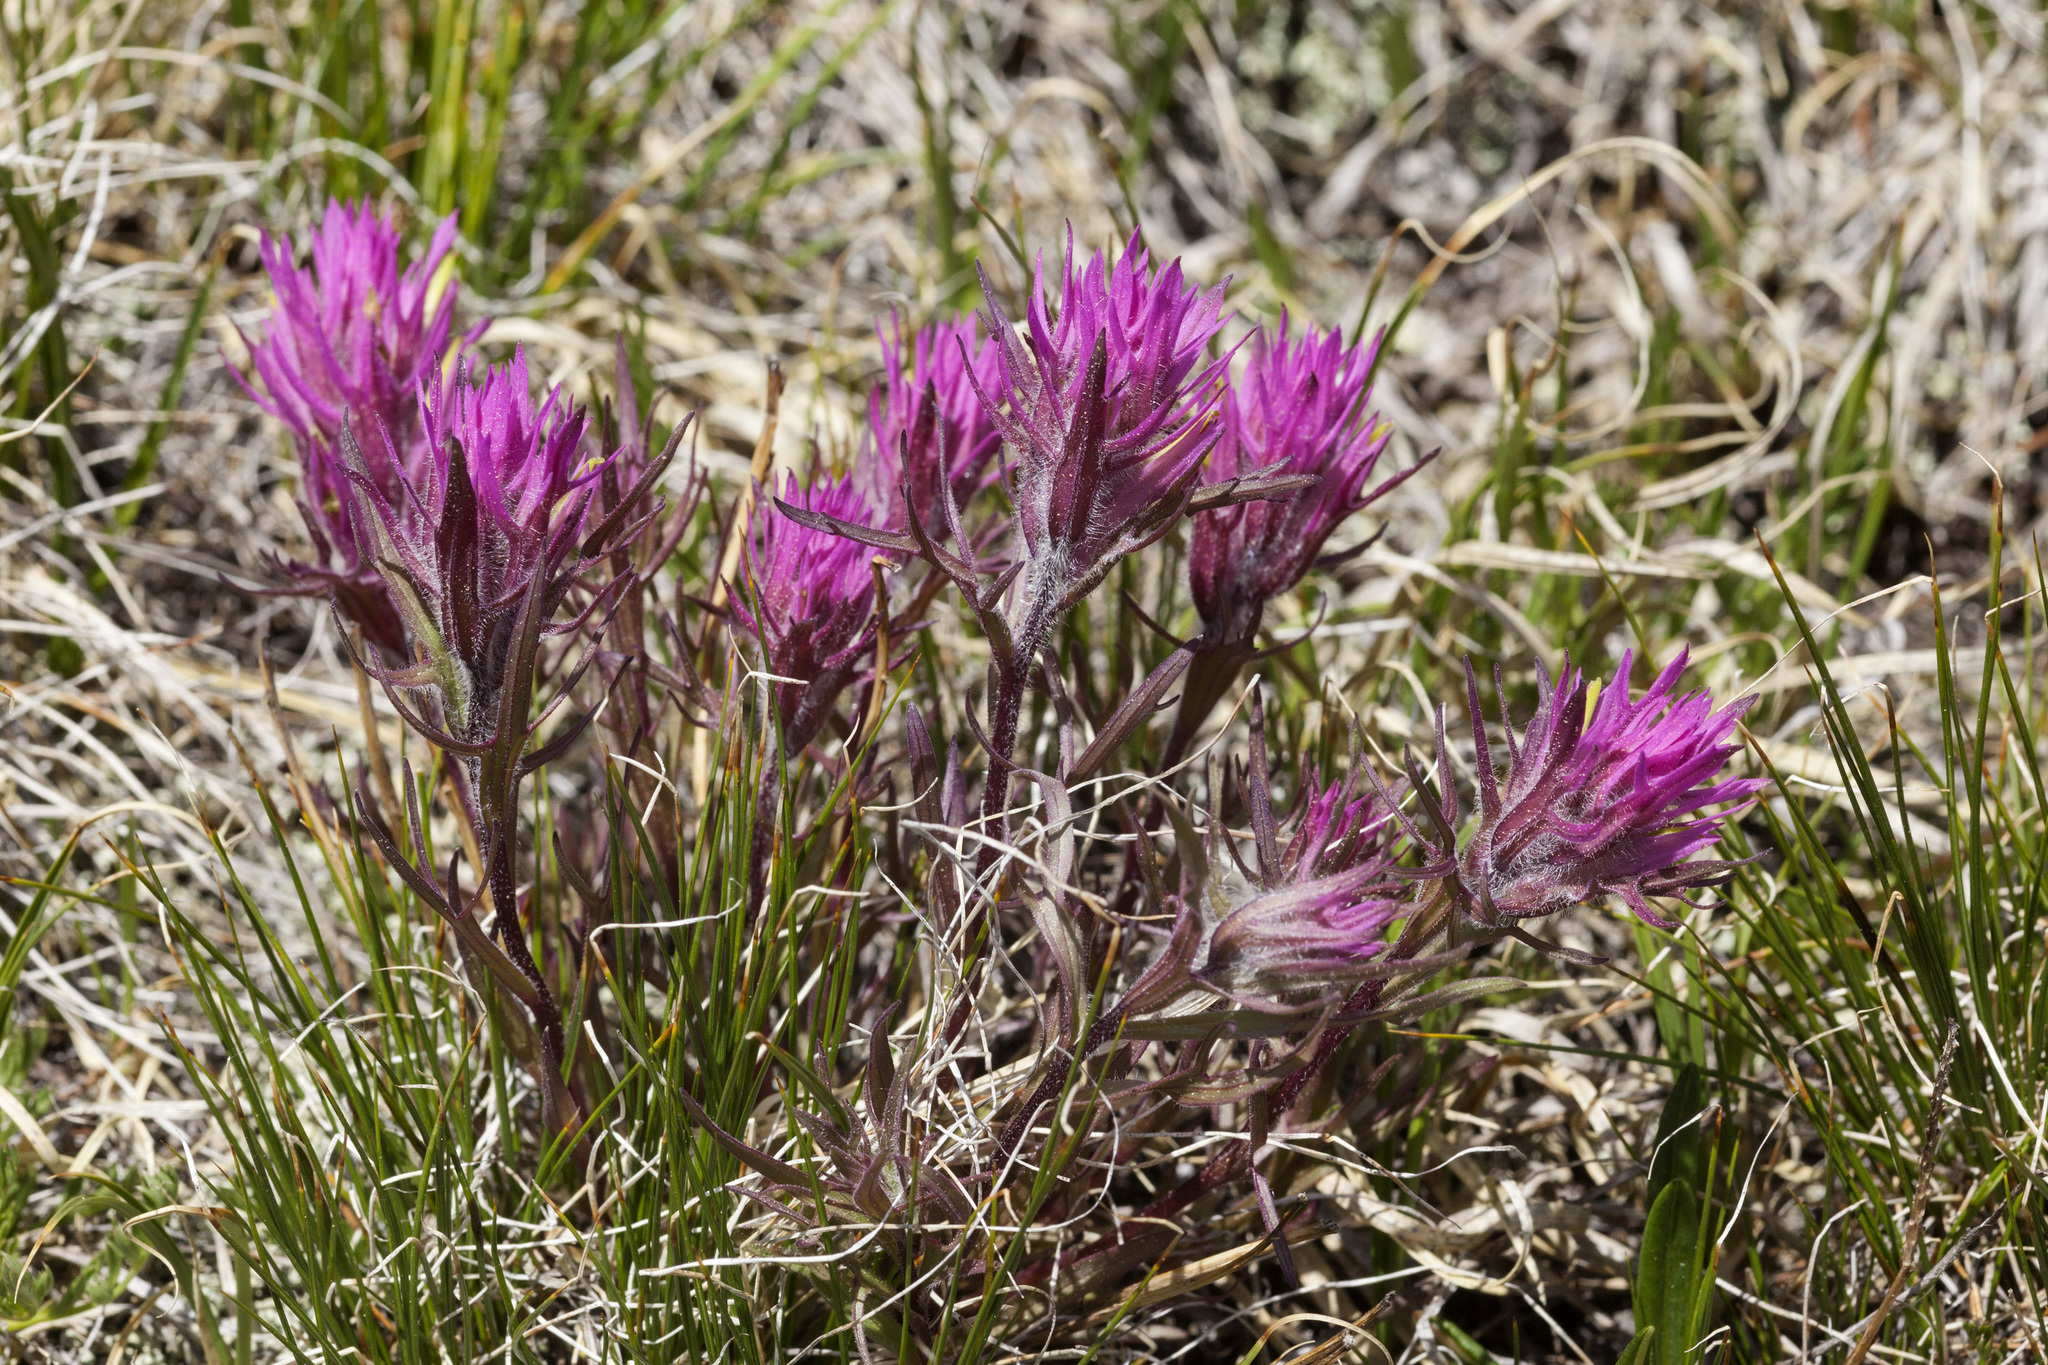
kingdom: Plantae
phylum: Tracheophyta
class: Magnoliopsida
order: Lamiales
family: Orobanchaceae
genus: Castilleja
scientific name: Castilleja haydenii
